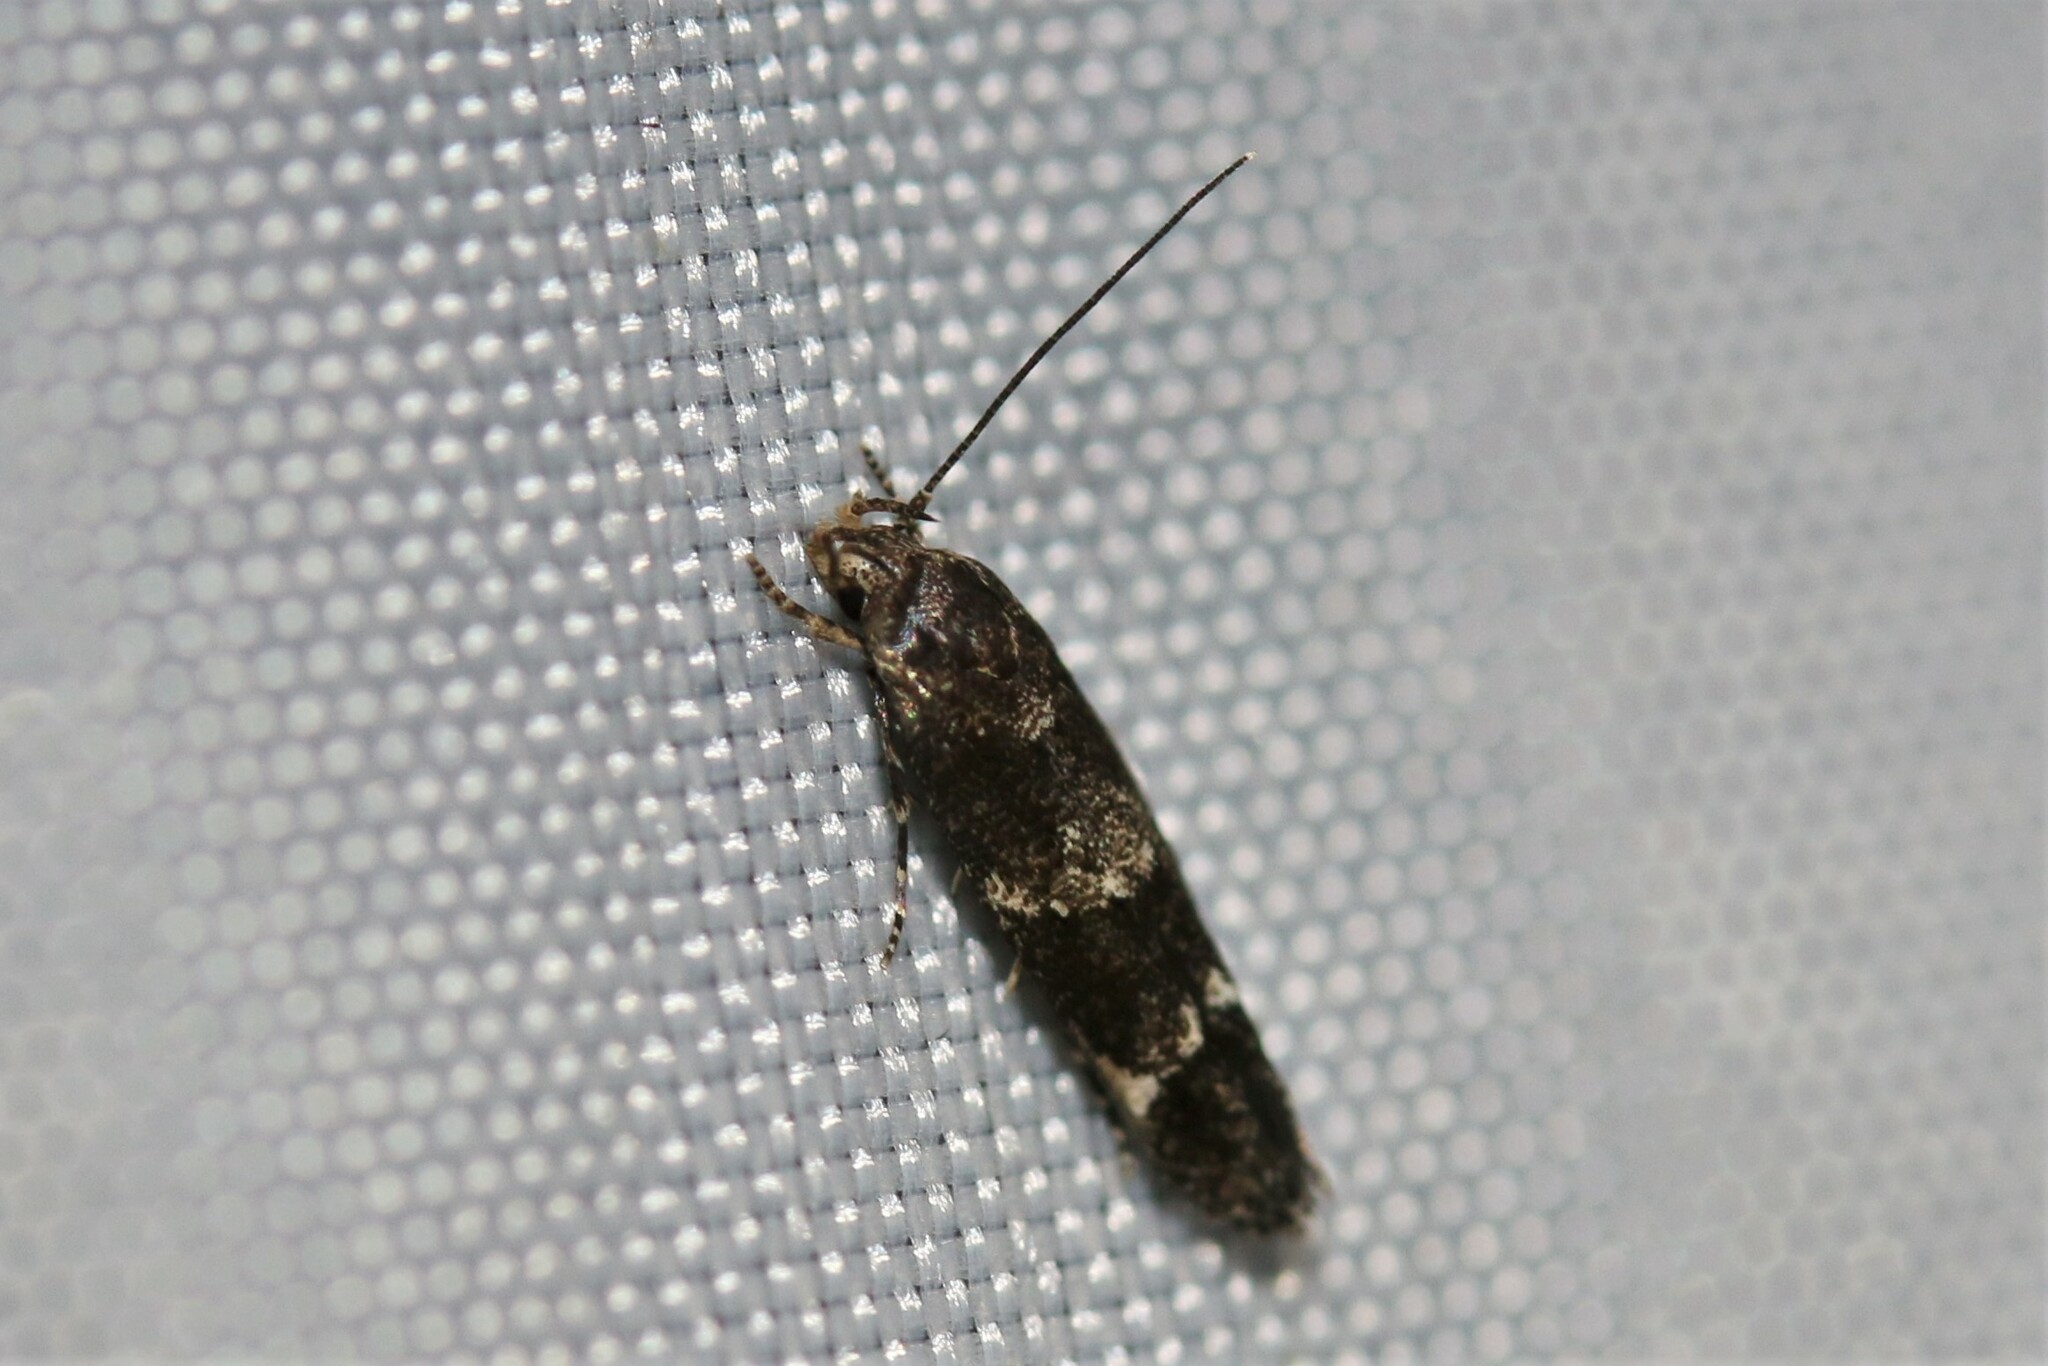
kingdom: Animalia
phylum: Arthropoda
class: Insecta
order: Lepidoptera
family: Momphidae
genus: Mompha
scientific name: Mompha subbistrigella
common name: Garden cosmet
